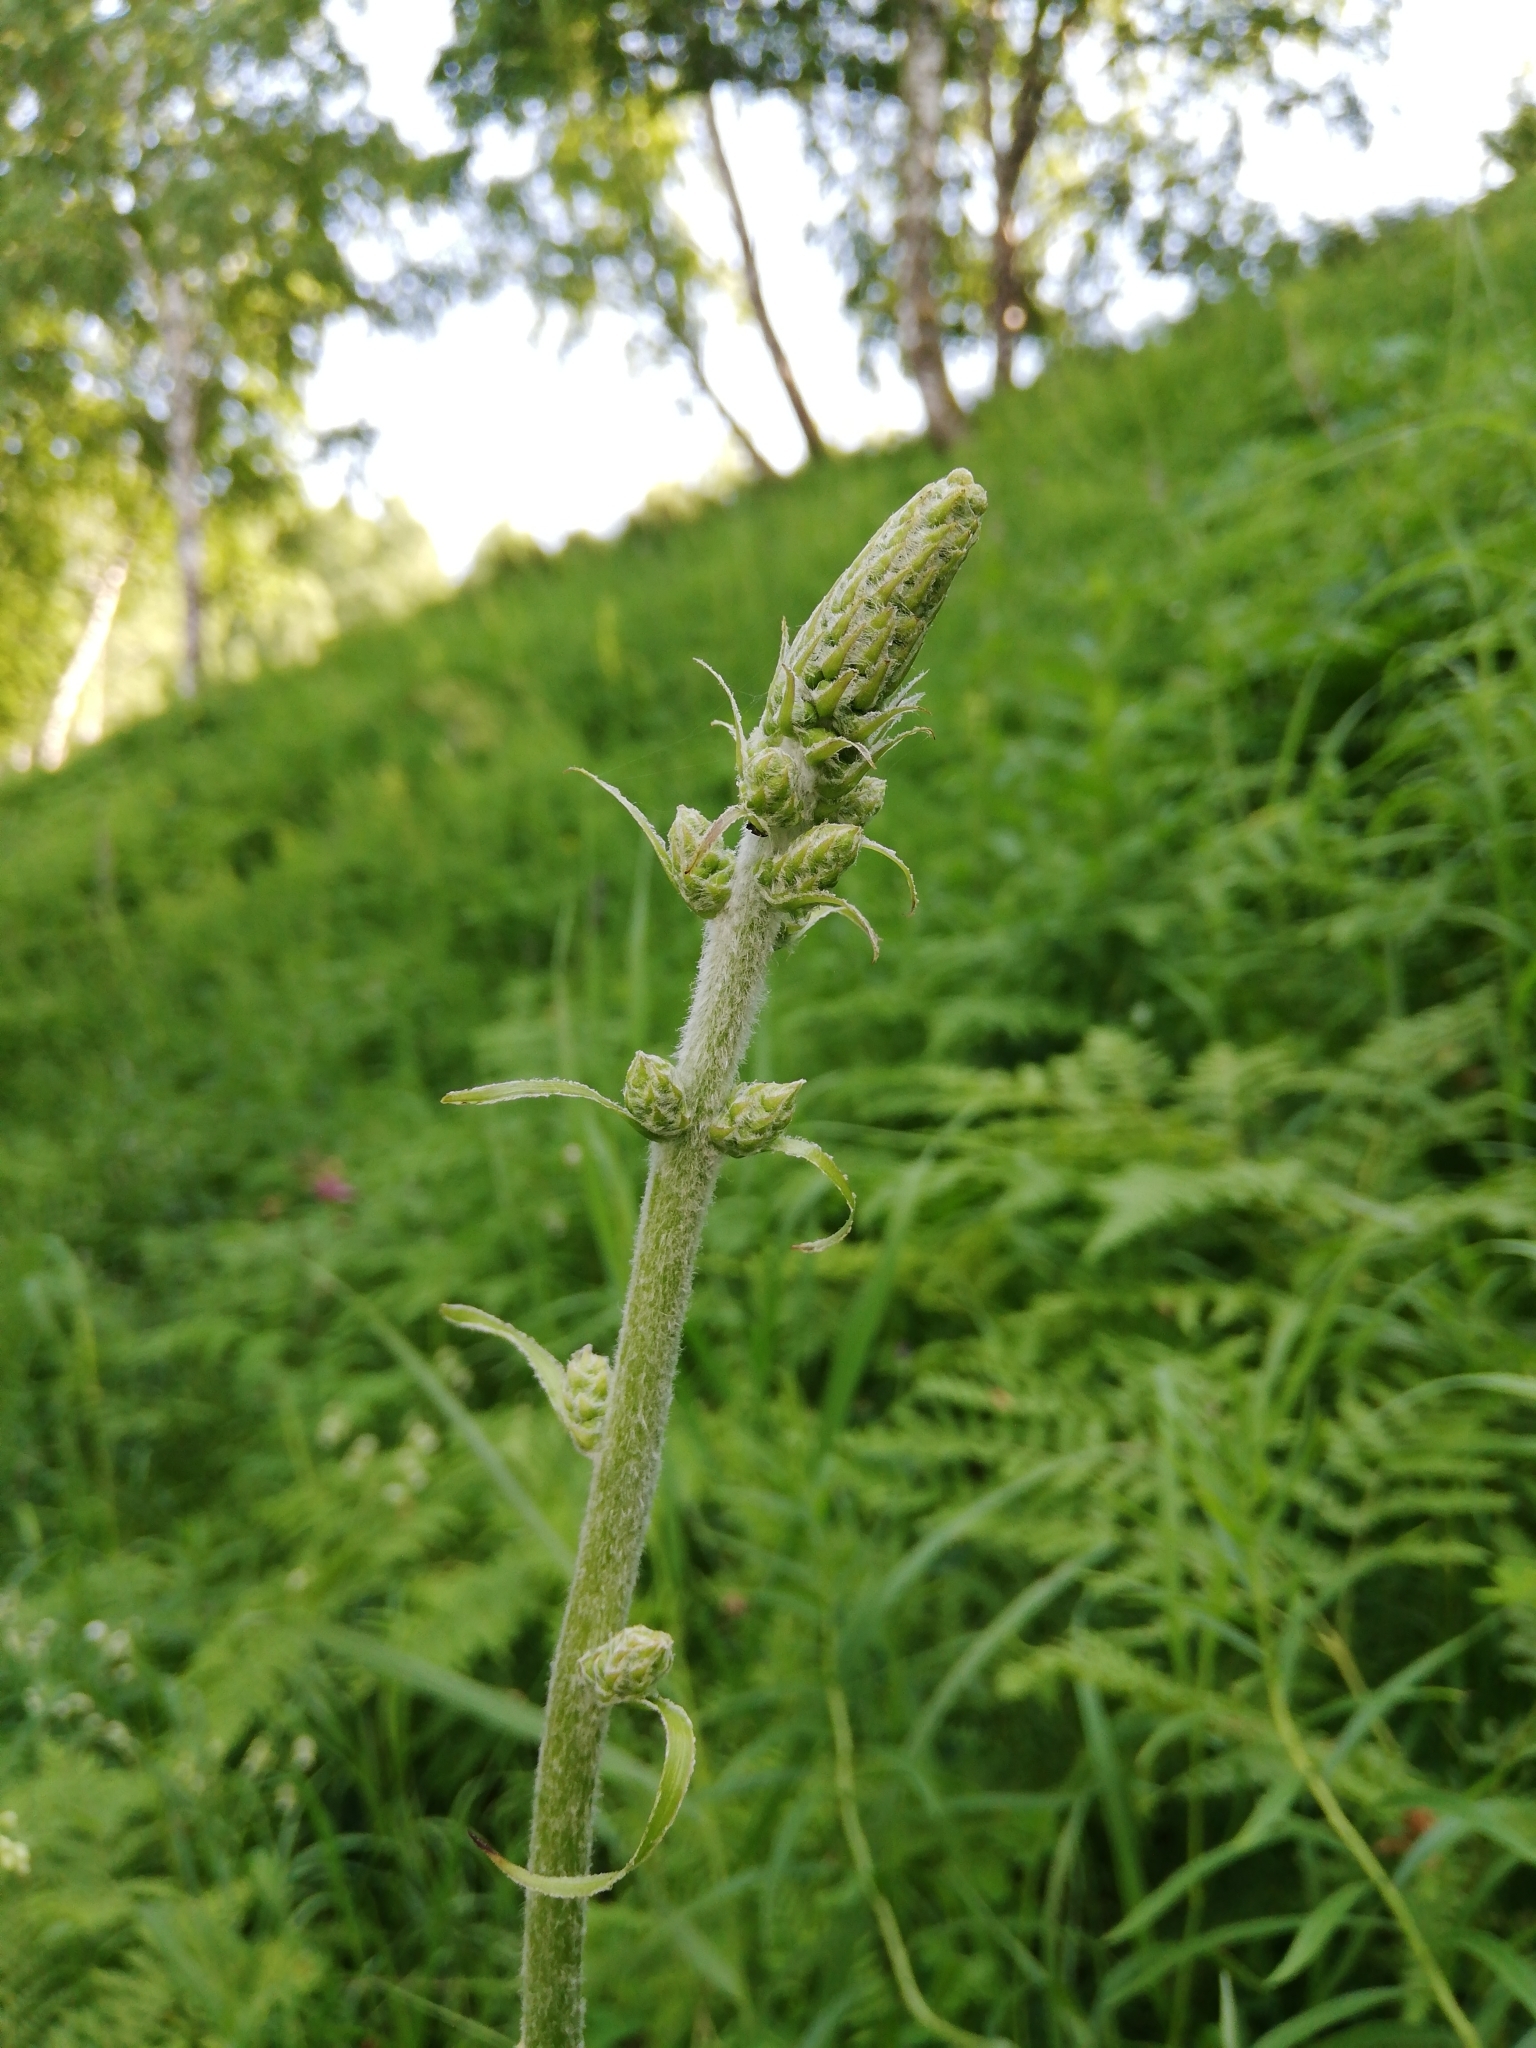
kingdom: Plantae
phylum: Tracheophyta
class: Liliopsida
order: Liliales
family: Melanthiaceae
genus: Veratrum
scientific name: Veratrum nigrum
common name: Black veratrum
